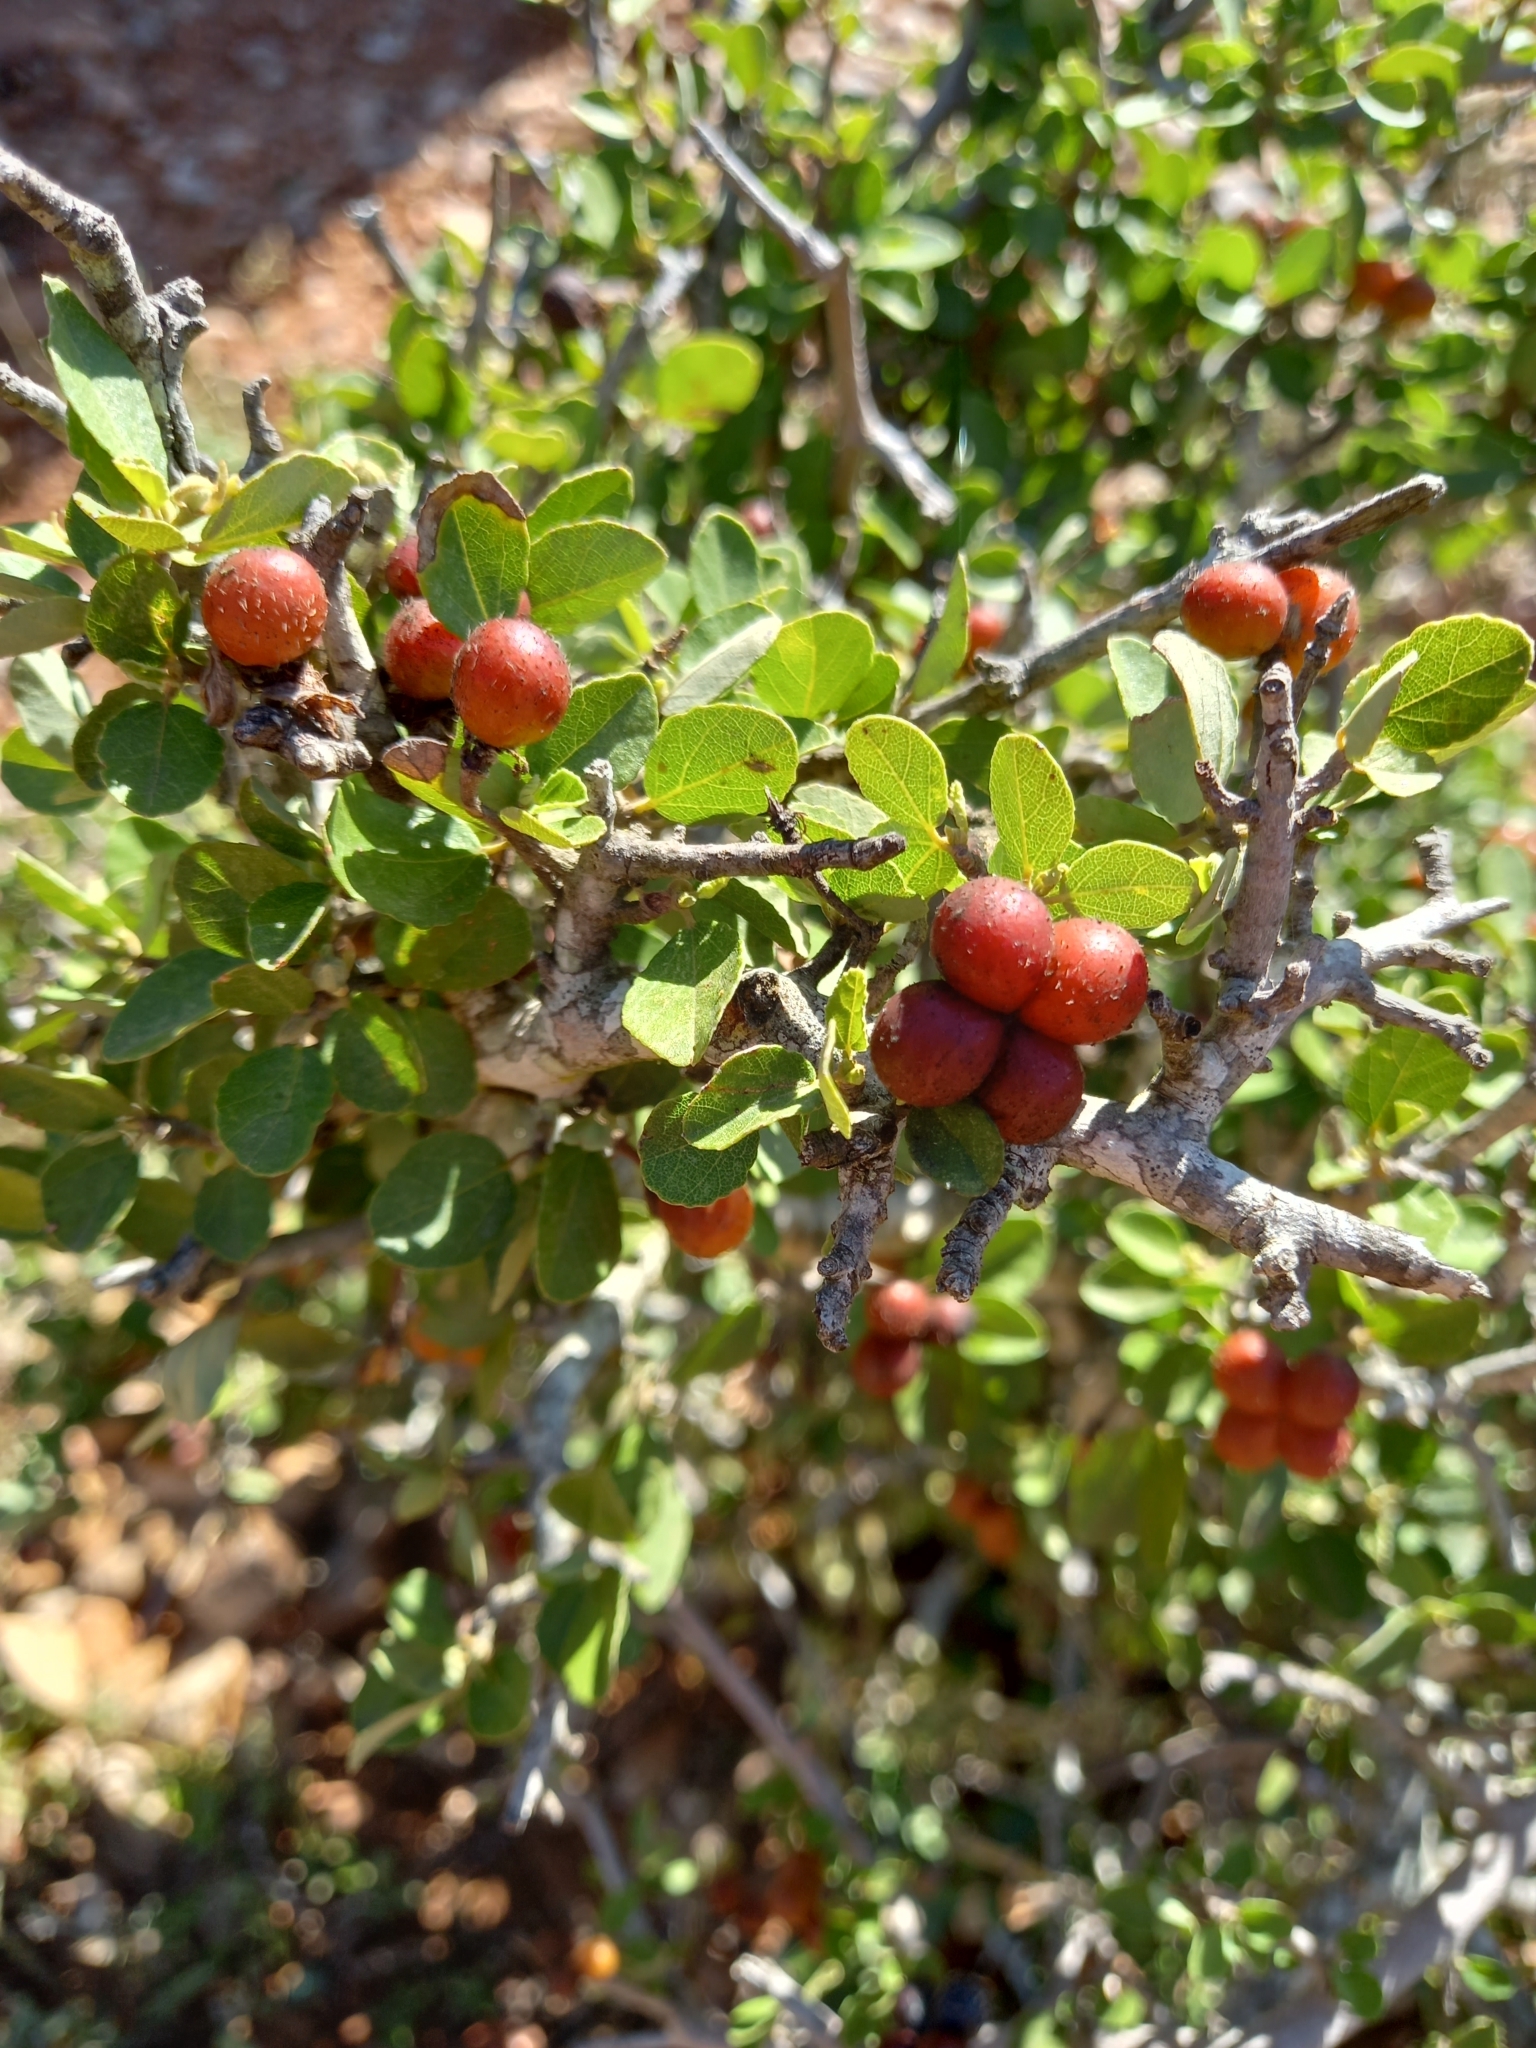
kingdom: Plantae
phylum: Tracheophyta
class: Magnoliopsida
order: Malvales
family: Malvaceae
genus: Grewia
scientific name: Grewia robusta
